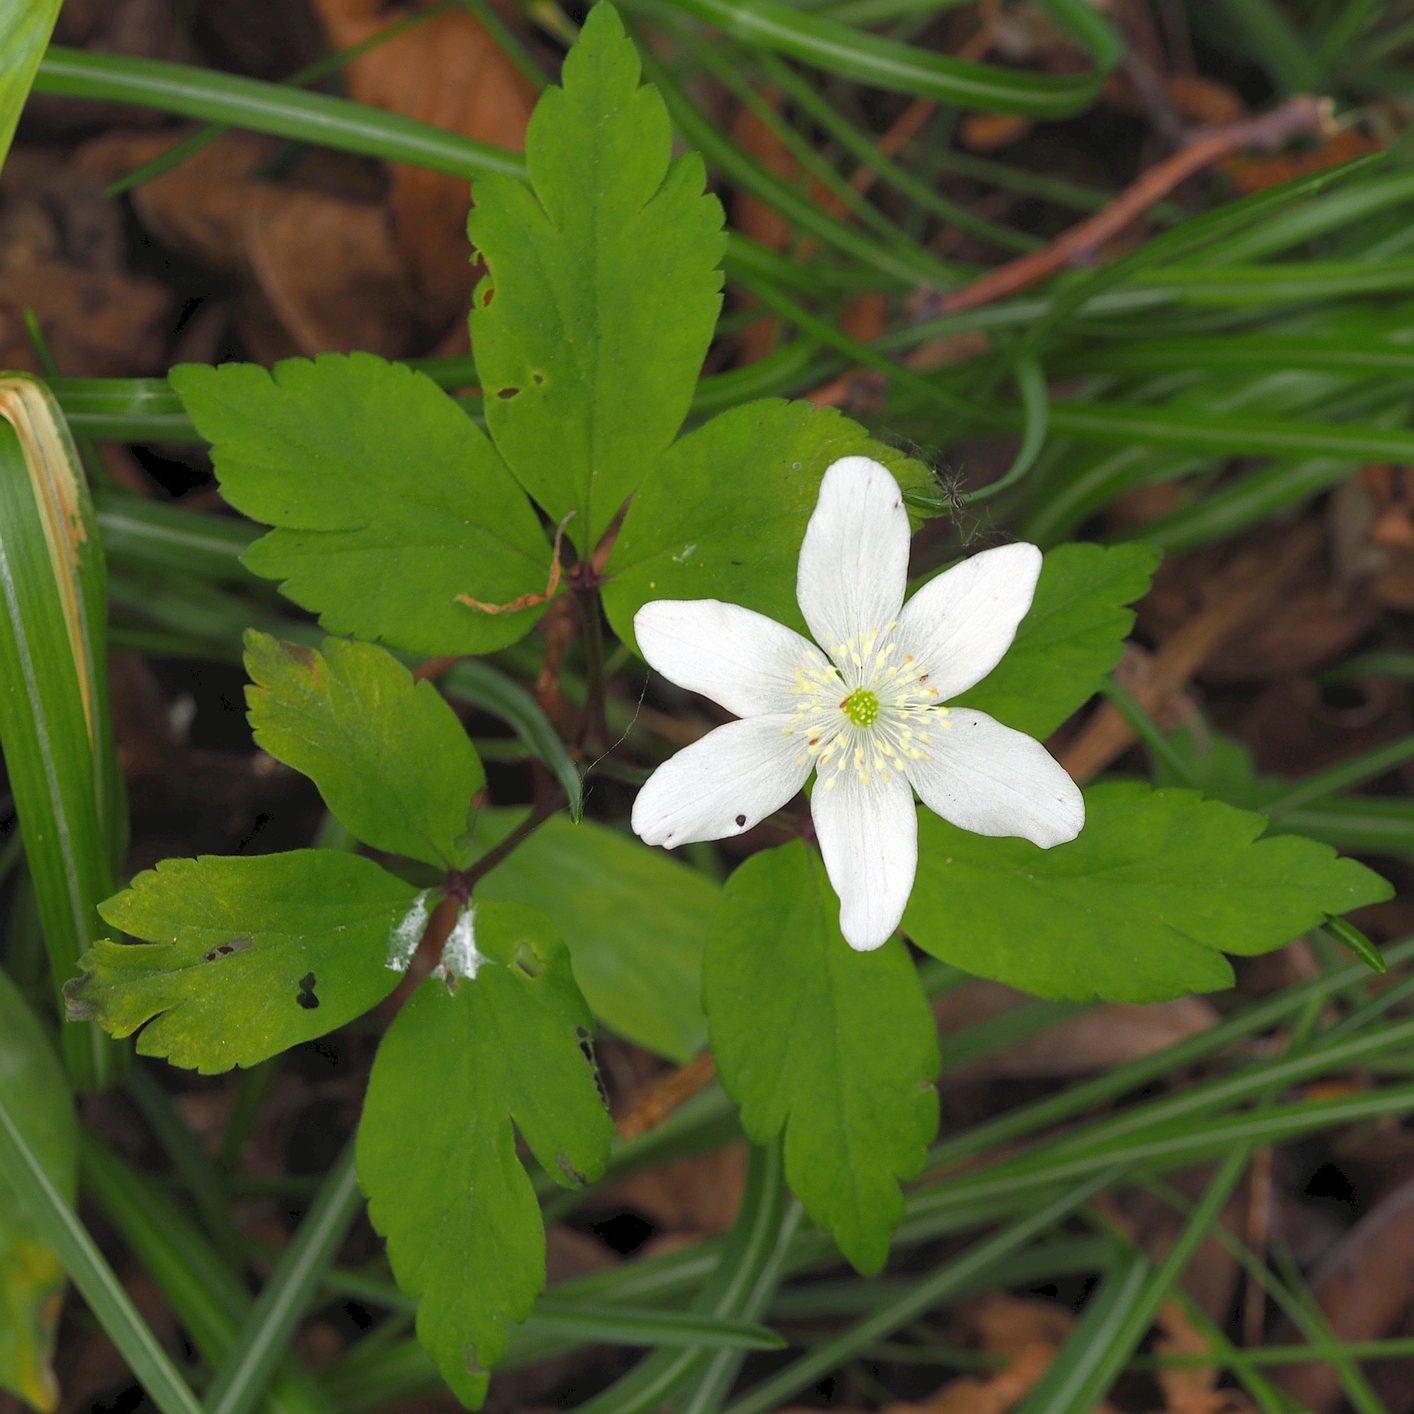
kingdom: Plantae
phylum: Tracheophyta
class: Magnoliopsida
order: Ranunculales
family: Ranunculaceae
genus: Anemone
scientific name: Anemone pittonii
